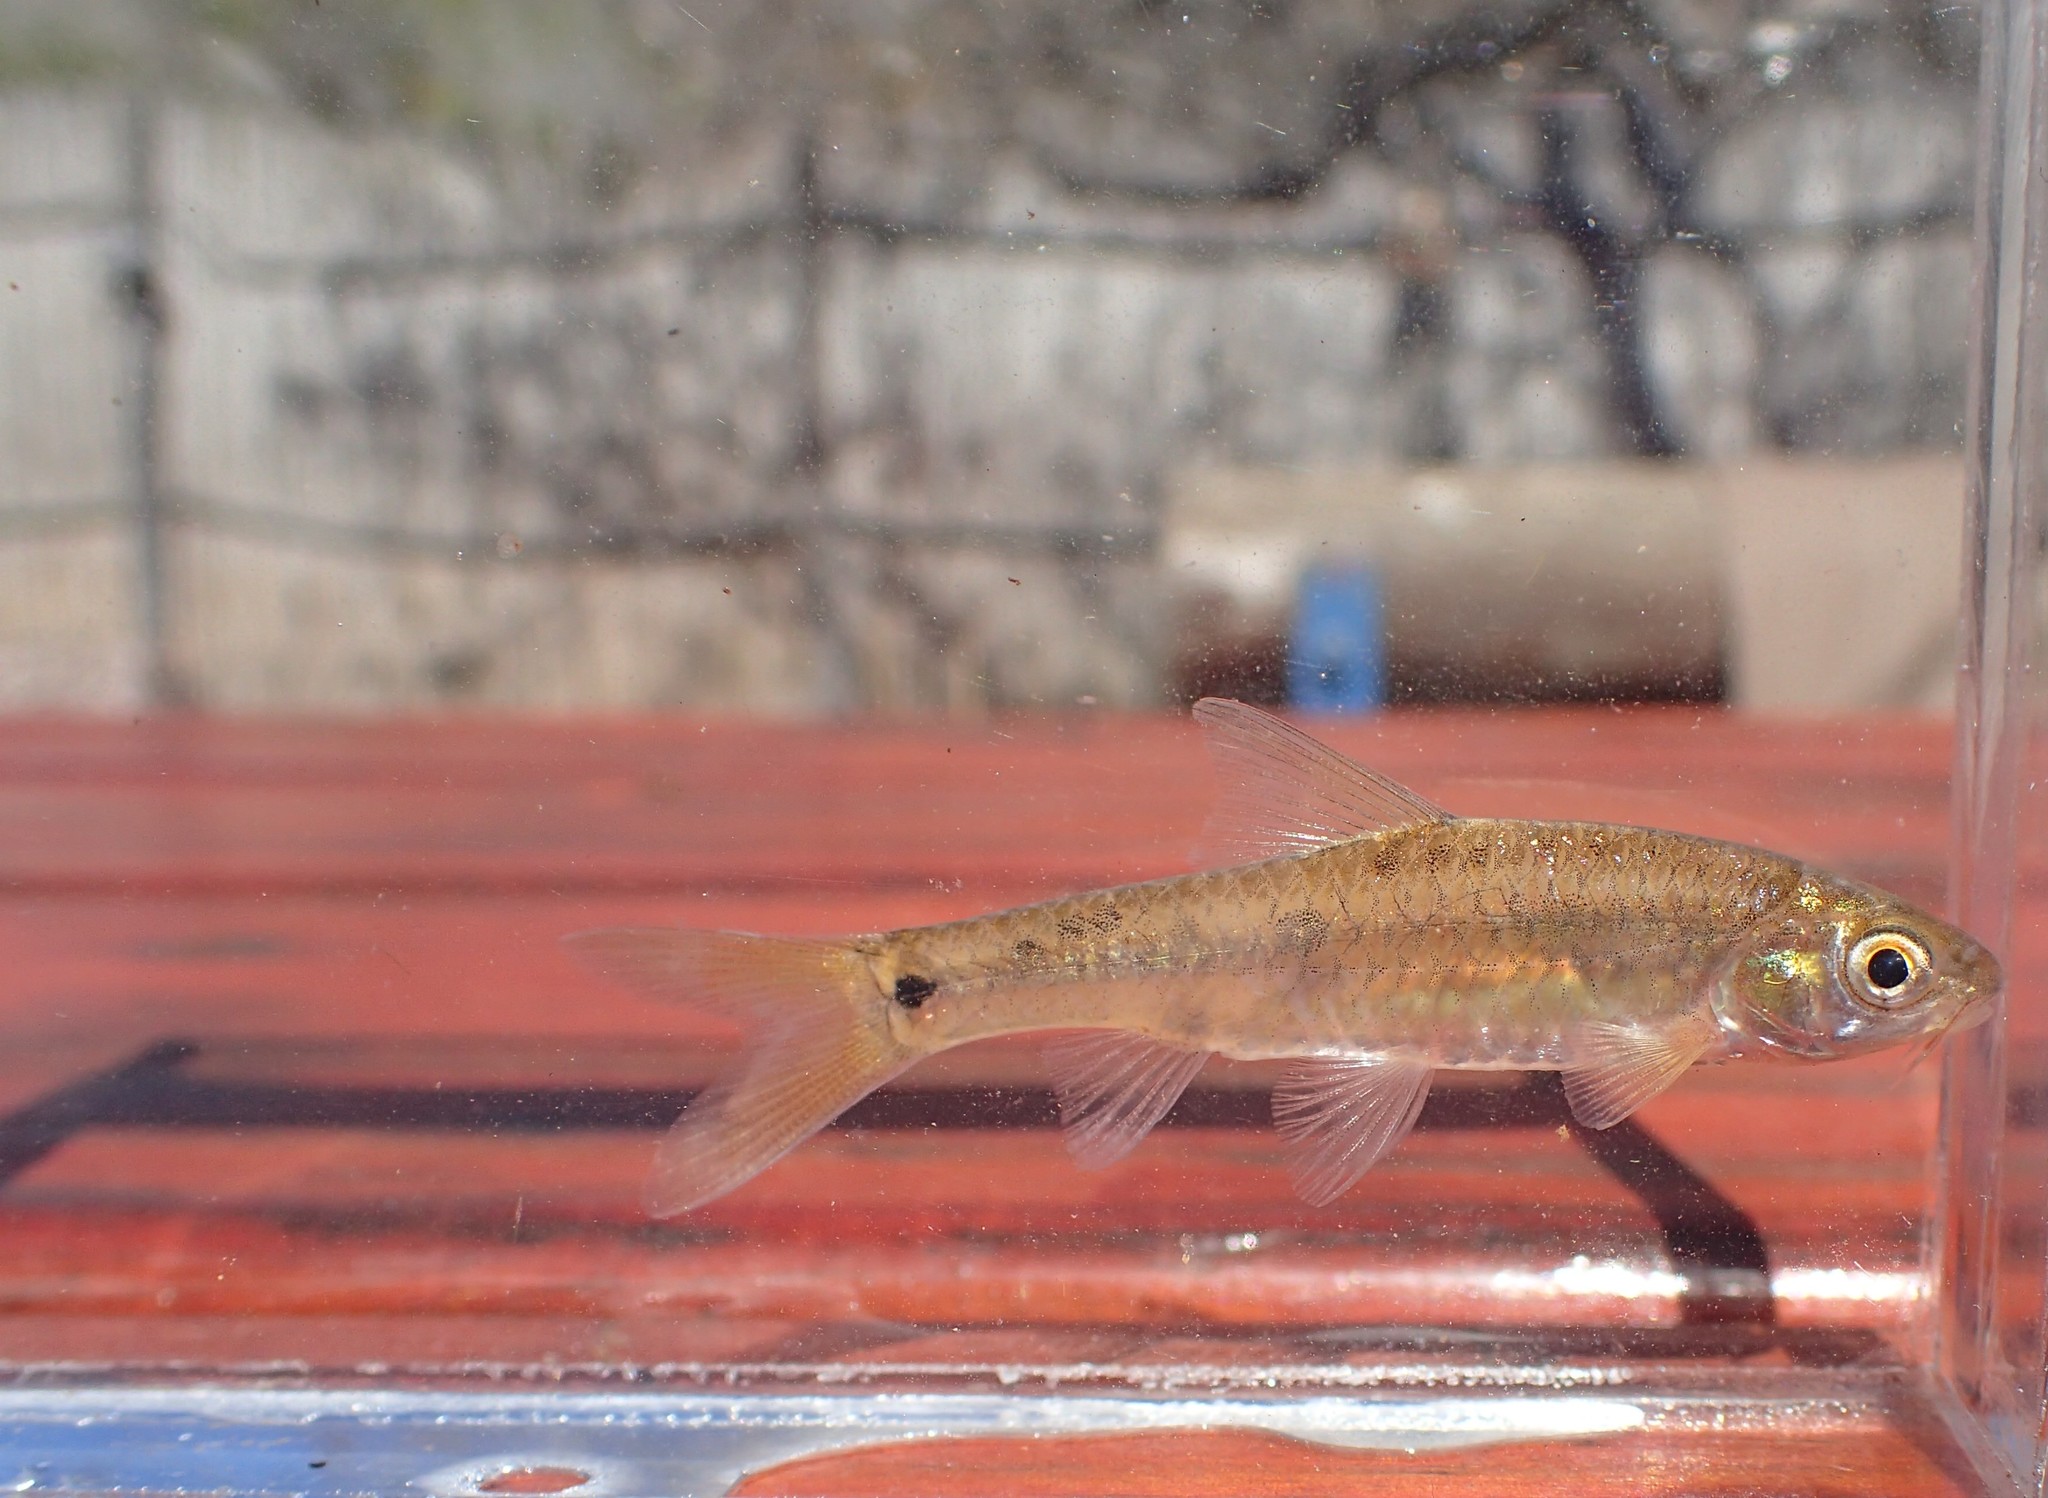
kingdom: Animalia
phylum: Chordata
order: Cypriniformes
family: Cyprinidae
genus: Enteromius
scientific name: Enteromius viviparus
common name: Bowstripe barb
